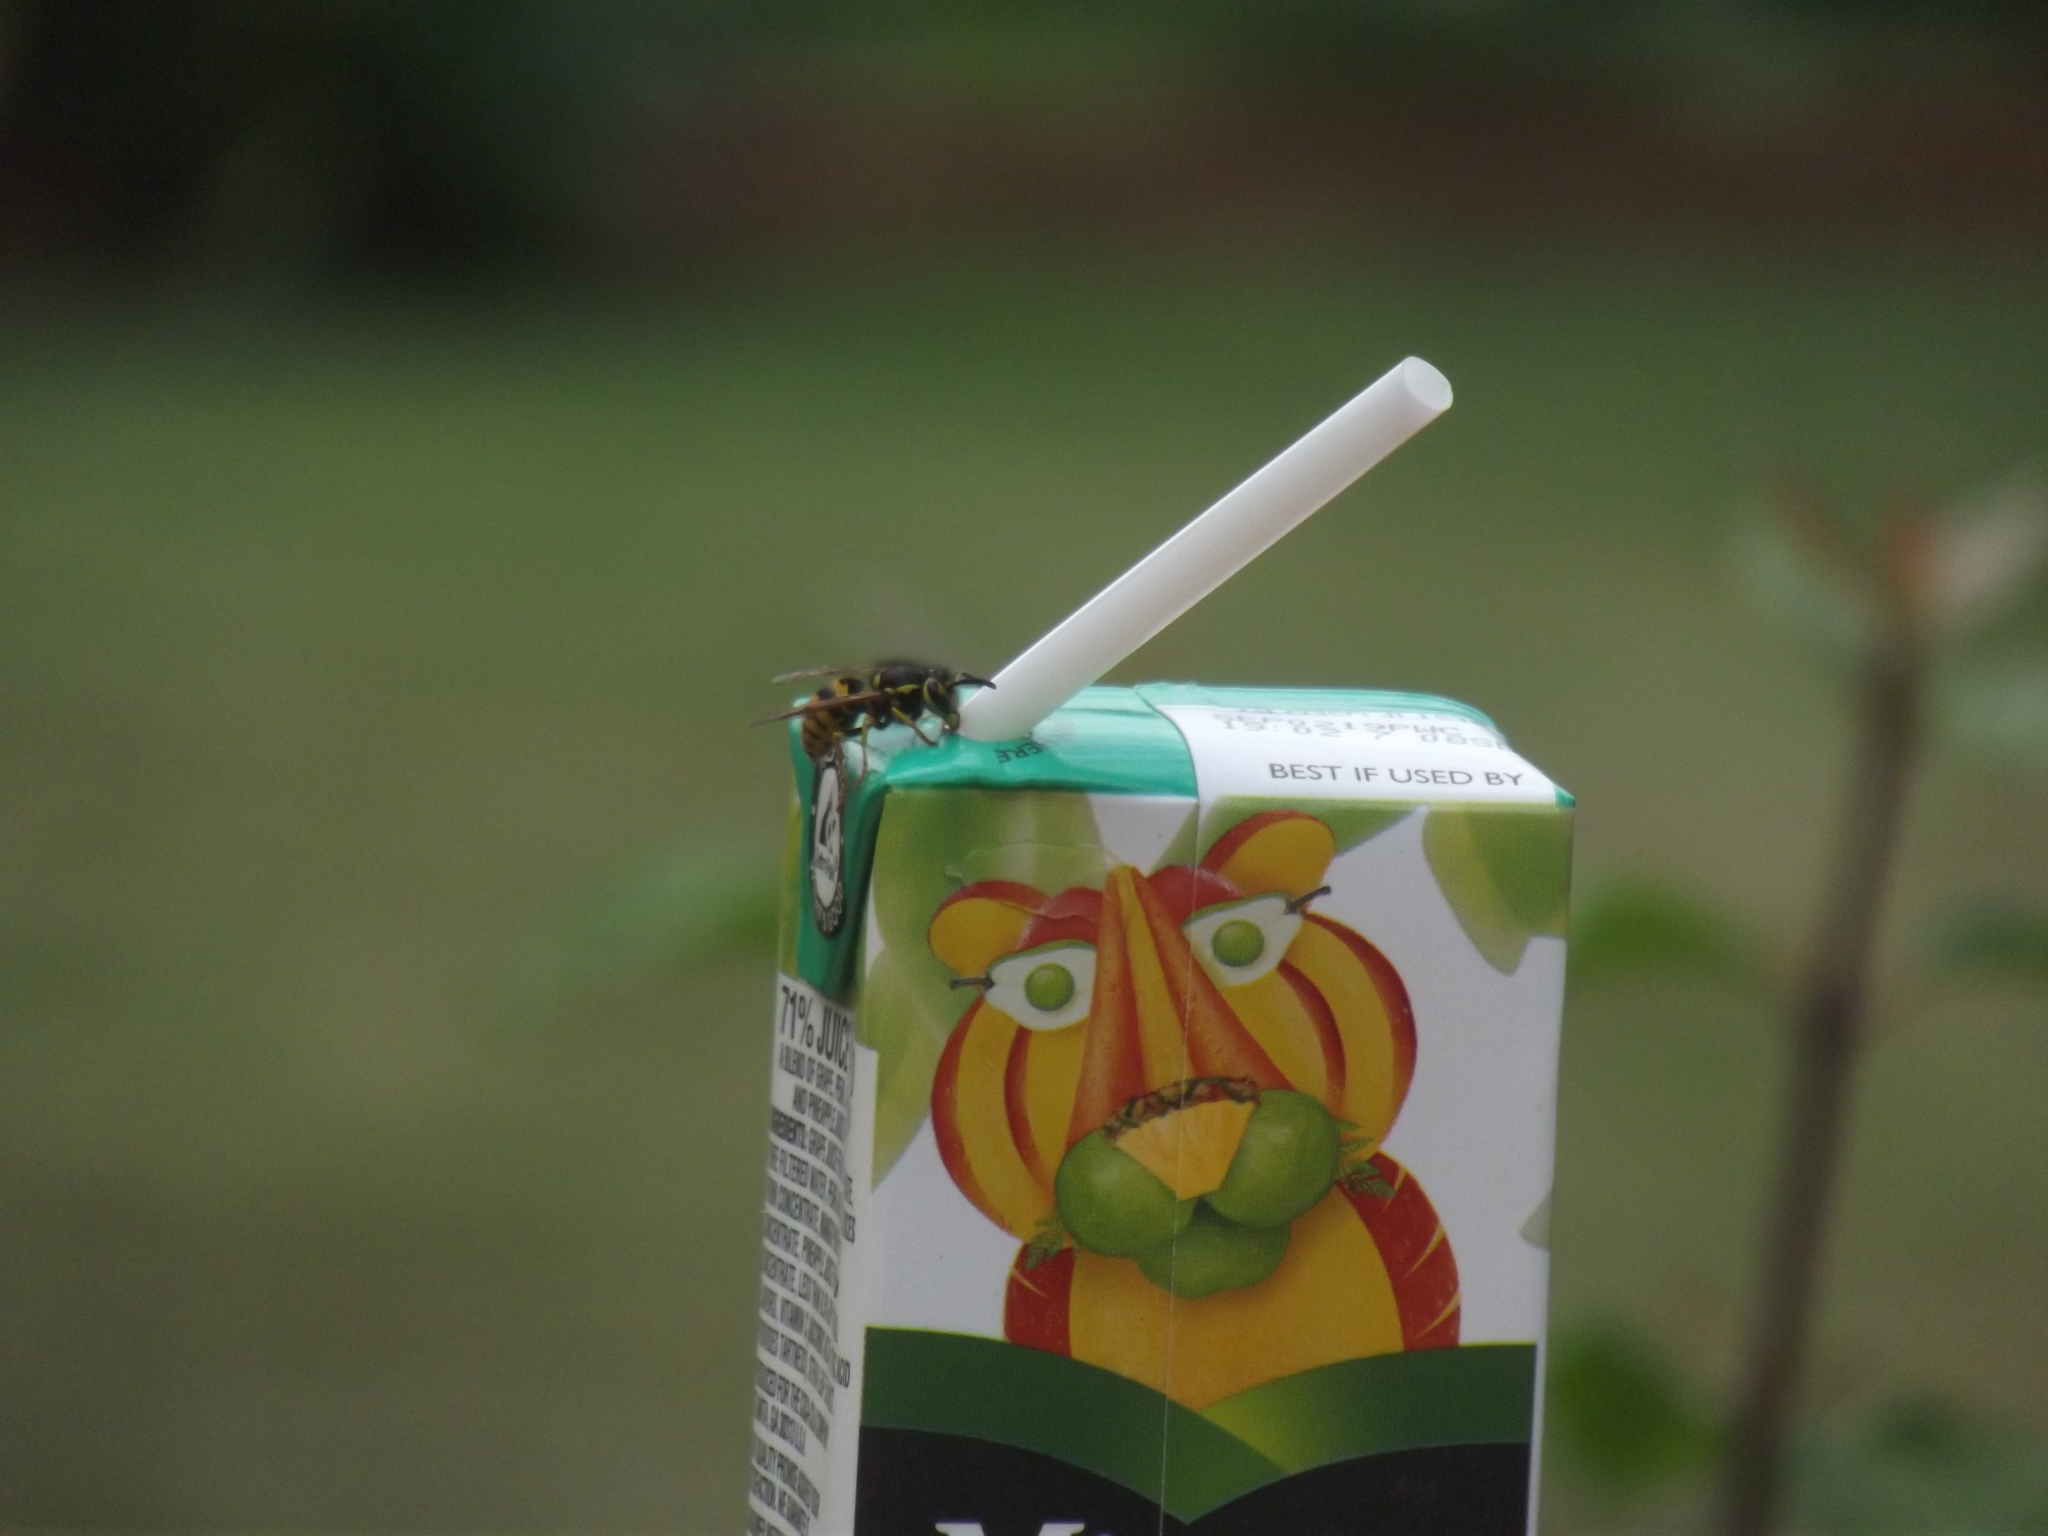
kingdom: Animalia
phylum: Arthropoda
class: Insecta
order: Hymenoptera
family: Vespidae
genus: Vespula
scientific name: Vespula pensylvanica
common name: Western yellowjacket
